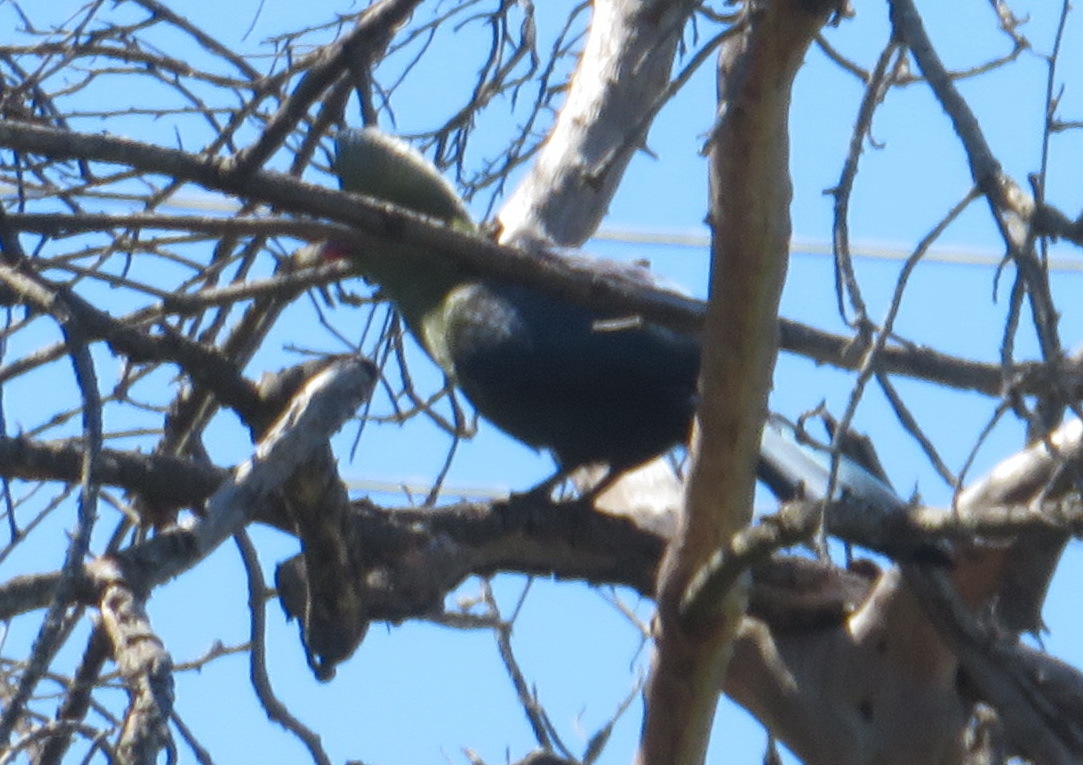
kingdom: Animalia
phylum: Chordata
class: Aves
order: Musophagiformes
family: Musophagidae
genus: Tauraco
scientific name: Tauraco corythaix
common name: Knysna turaco
